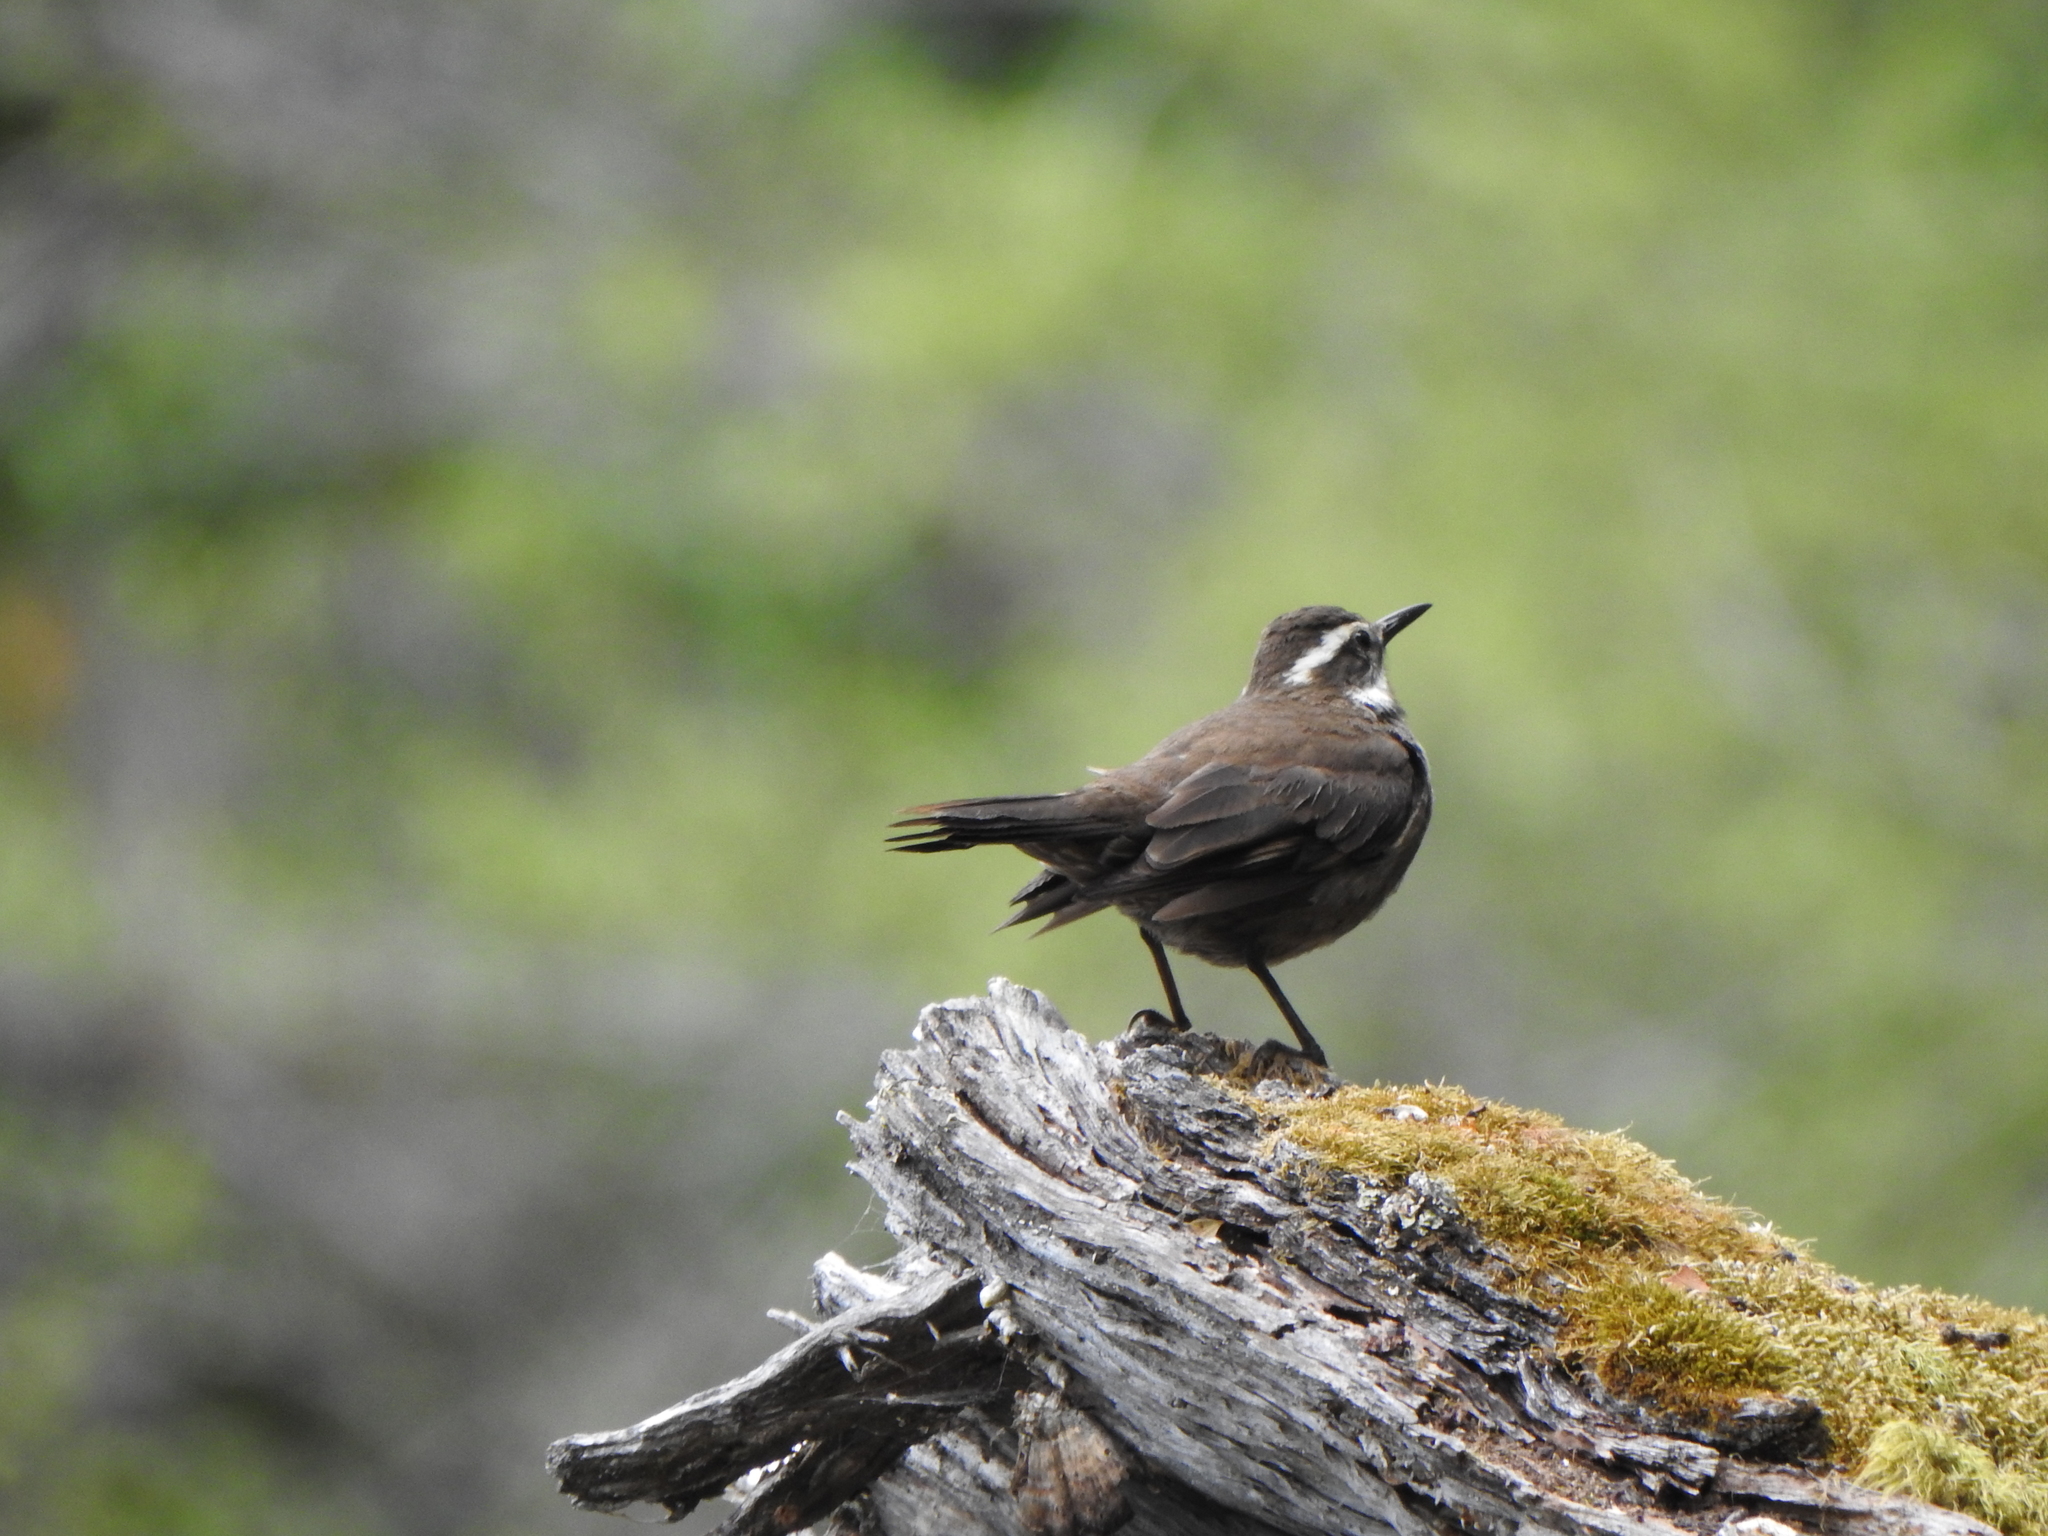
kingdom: Animalia
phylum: Chordata
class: Aves
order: Passeriformes
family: Furnariidae
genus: Cinclodes
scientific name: Cinclodes patagonicus
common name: Dark-bellied cinclodes
